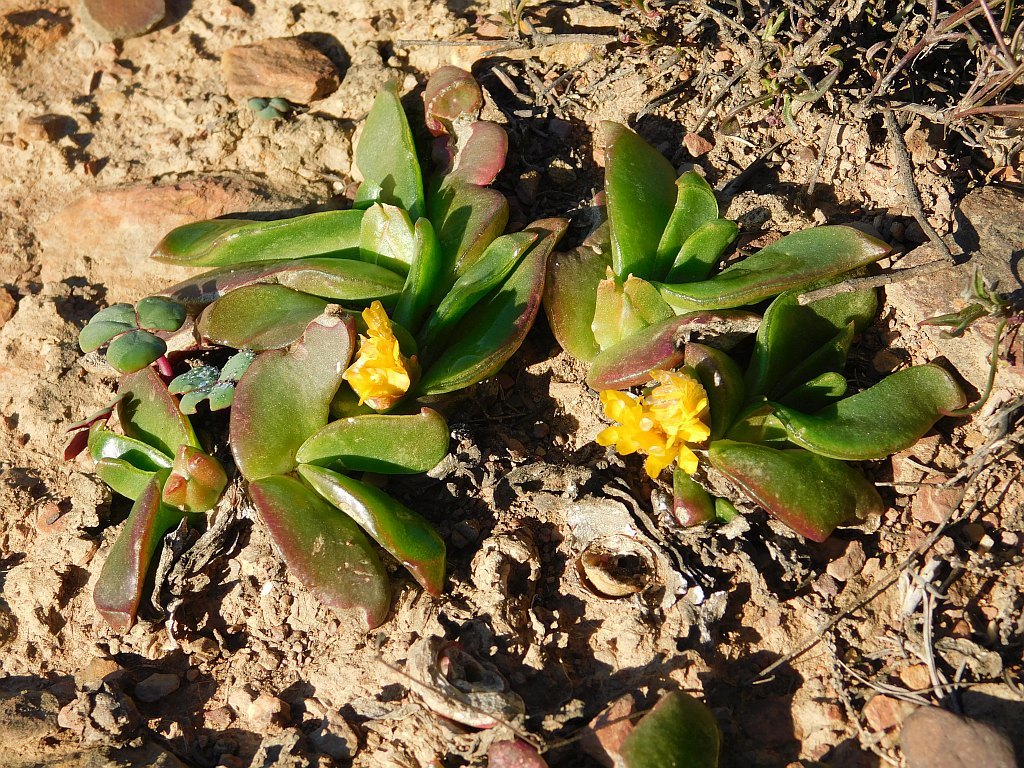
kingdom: Plantae
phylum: Tracheophyta
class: Magnoliopsida
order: Caryophyllales
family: Aizoaceae
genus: Glottiphyllum
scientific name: Glottiphyllum depressum
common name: Fig-marigold
